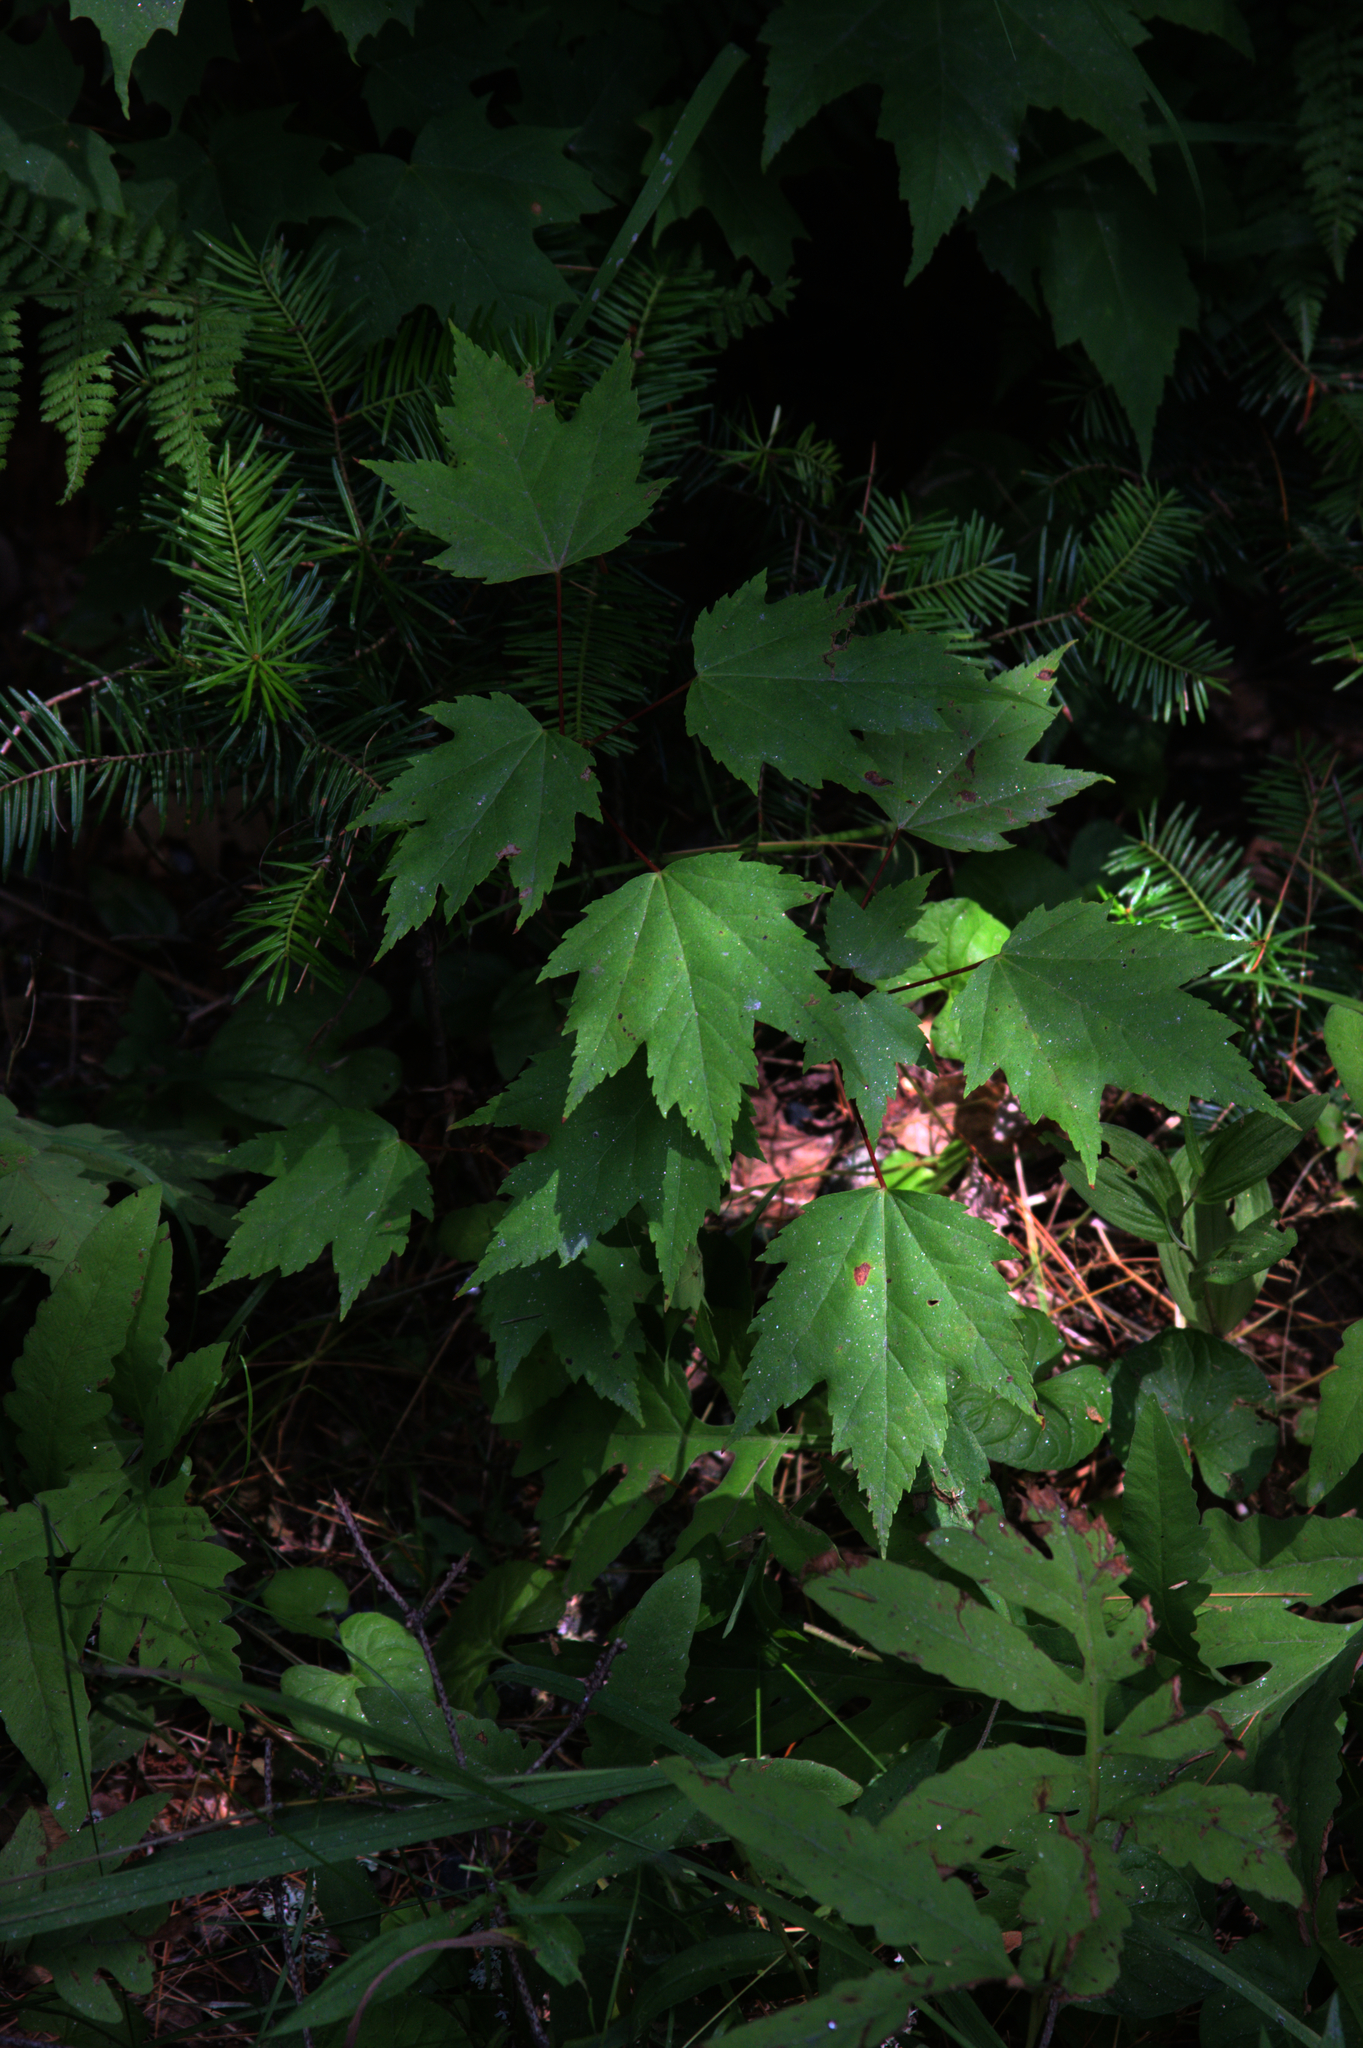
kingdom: Plantae
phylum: Tracheophyta
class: Magnoliopsida
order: Sapindales
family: Sapindaceae
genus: Acer
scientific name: Acer rubrum
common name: Red maple
